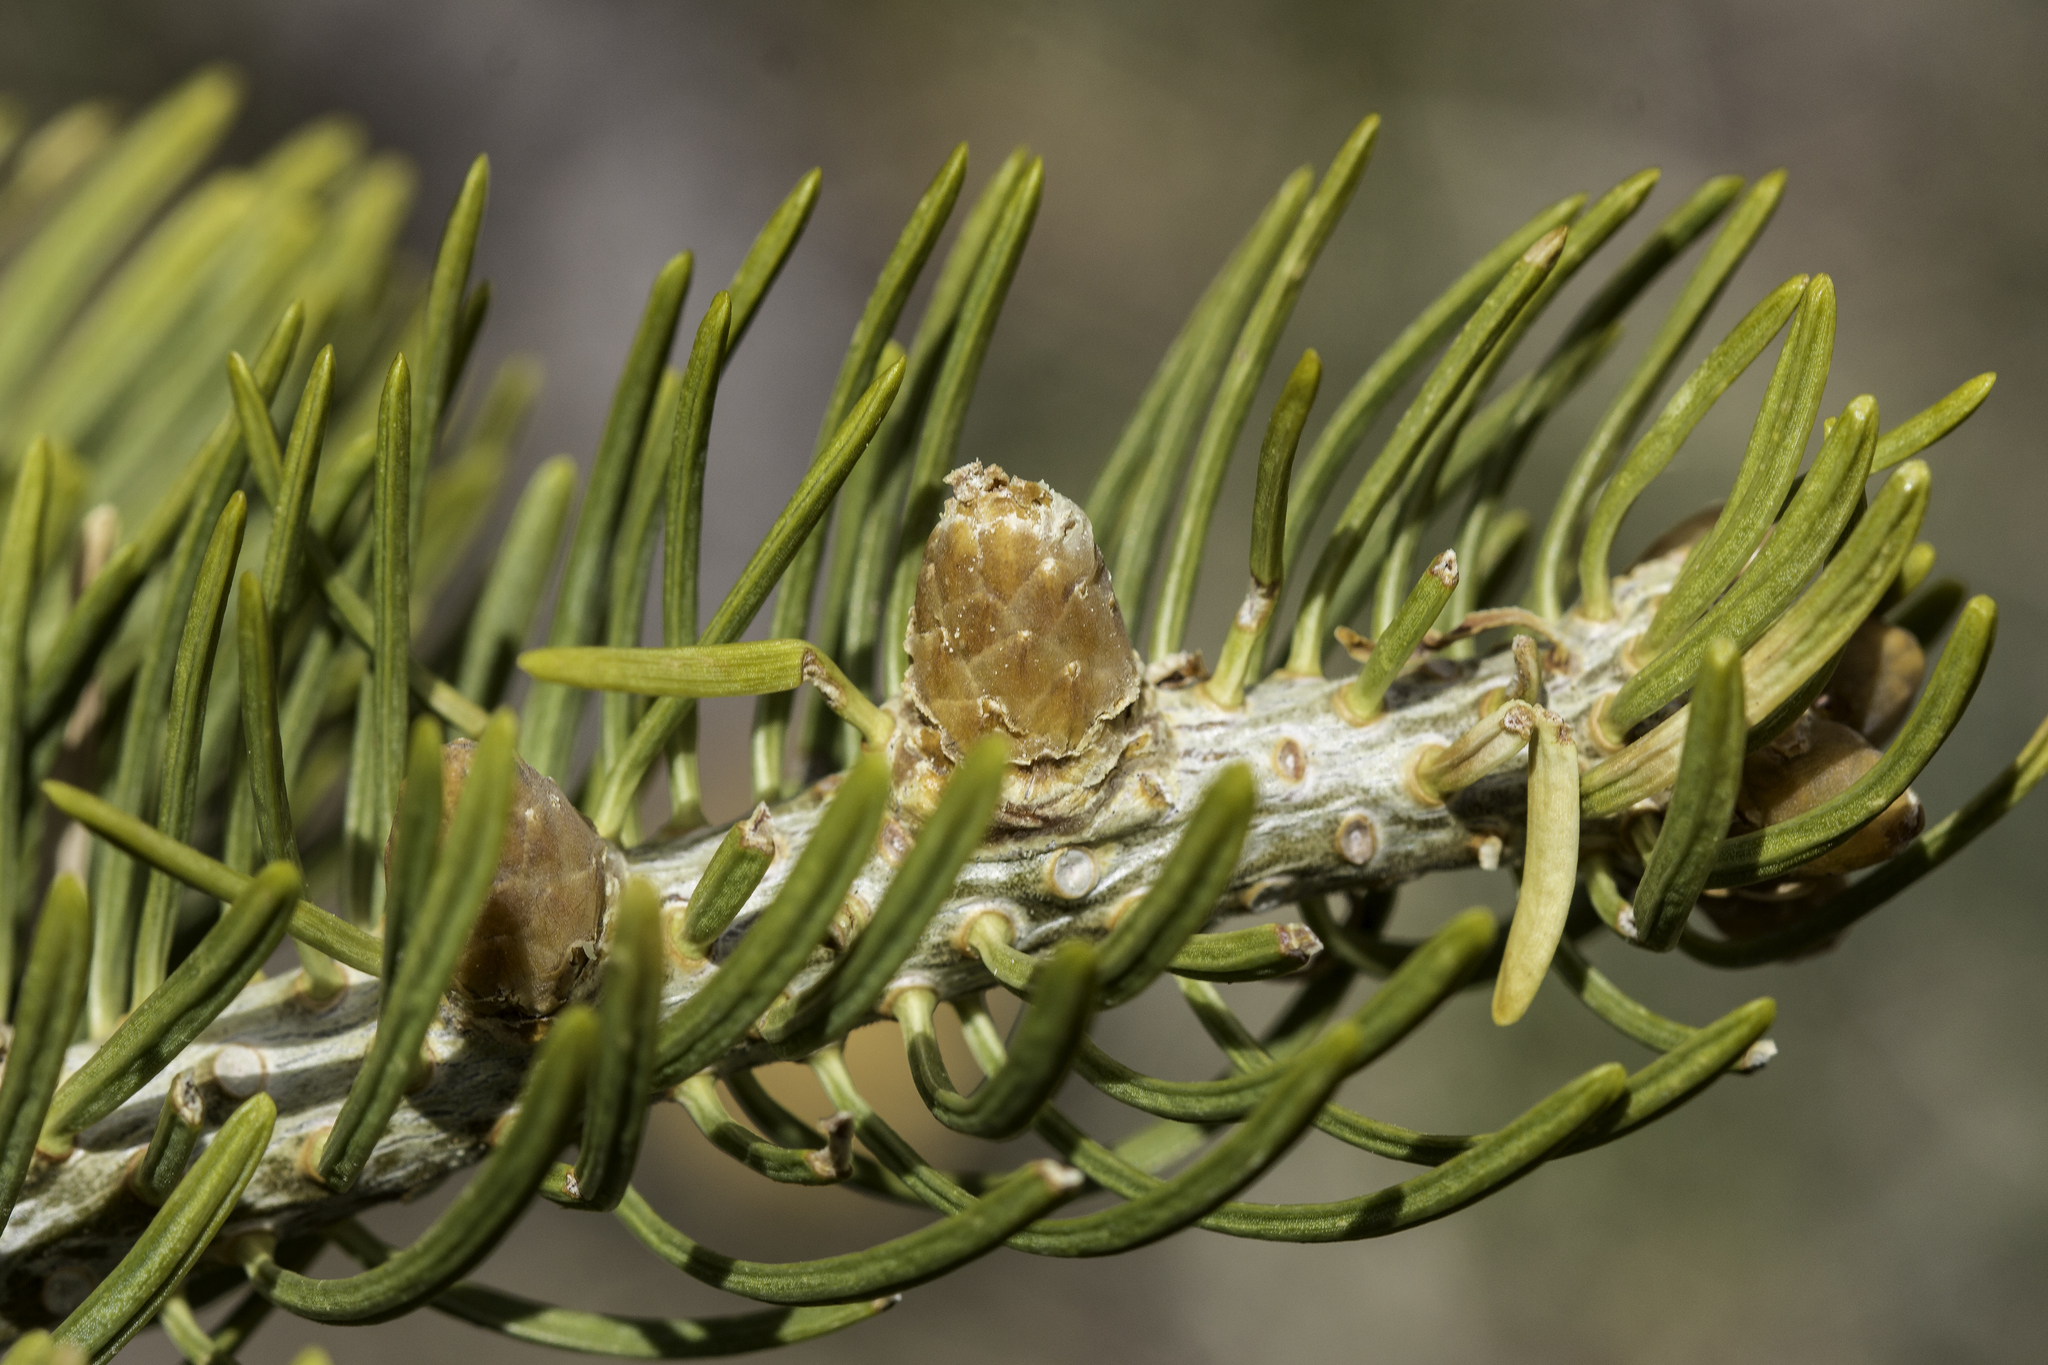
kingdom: Plantae
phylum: Tracheophyta
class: Pinopsida
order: Pinales
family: Pinaceae
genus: Abies
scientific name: Abies concolor
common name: Colorado fir
